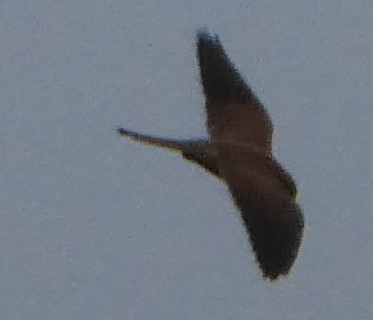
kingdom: Animalia
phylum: Chordata
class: Aves
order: Falconiformes
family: Falconidae
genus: Falco
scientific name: Falco tinnunculus
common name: Common kestrel
